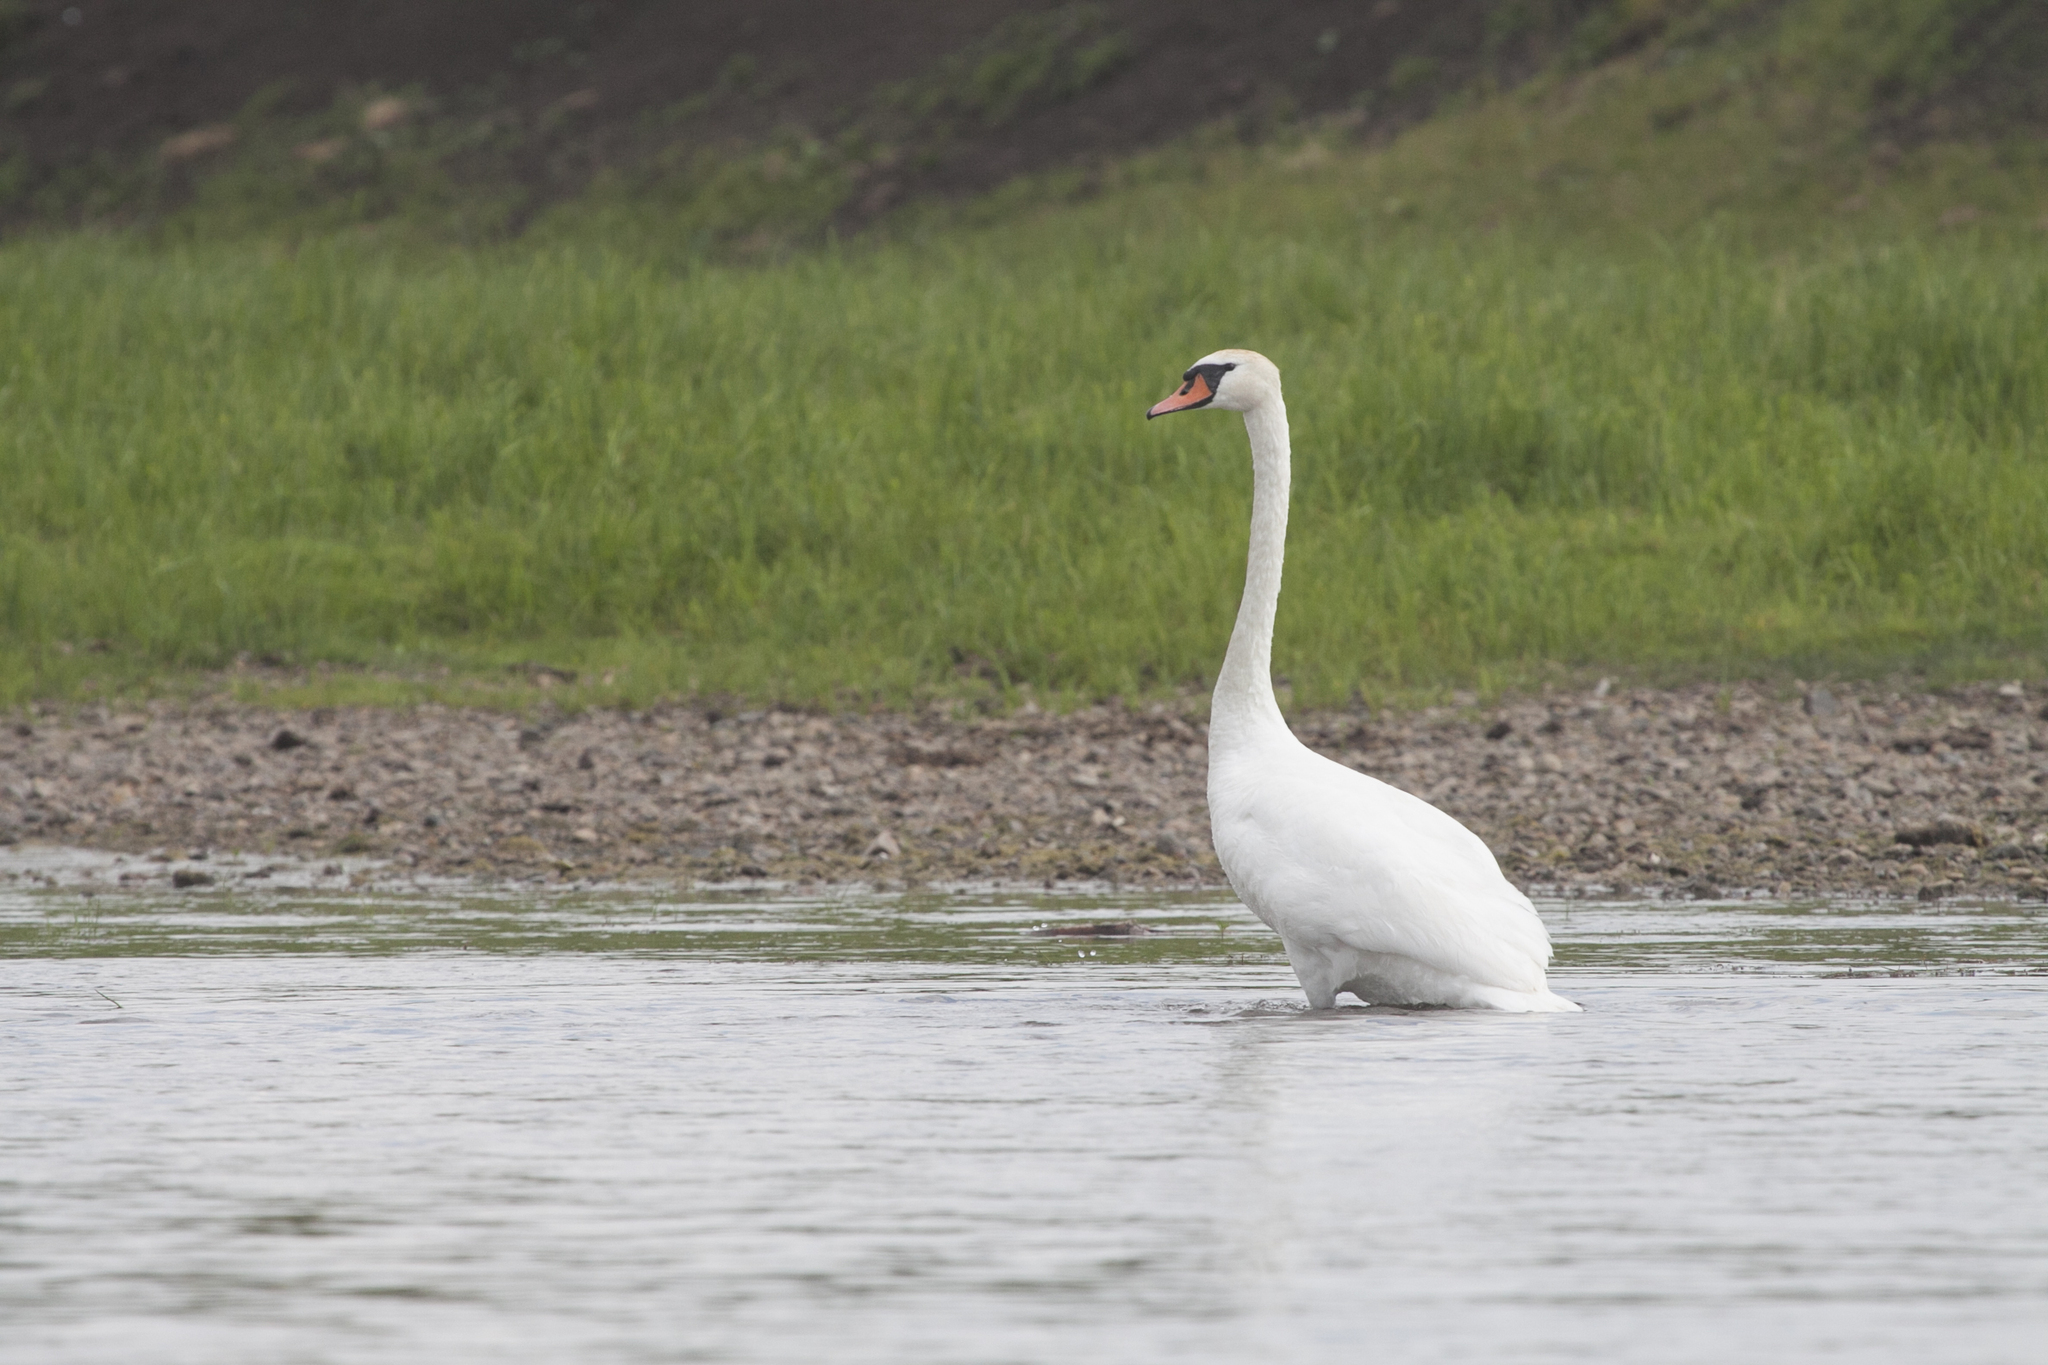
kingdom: Animalia
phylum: Chordata
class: Aves
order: Anseriformes
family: Anatidae
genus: Cygnus
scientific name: Cygnus olor
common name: Mute swan
